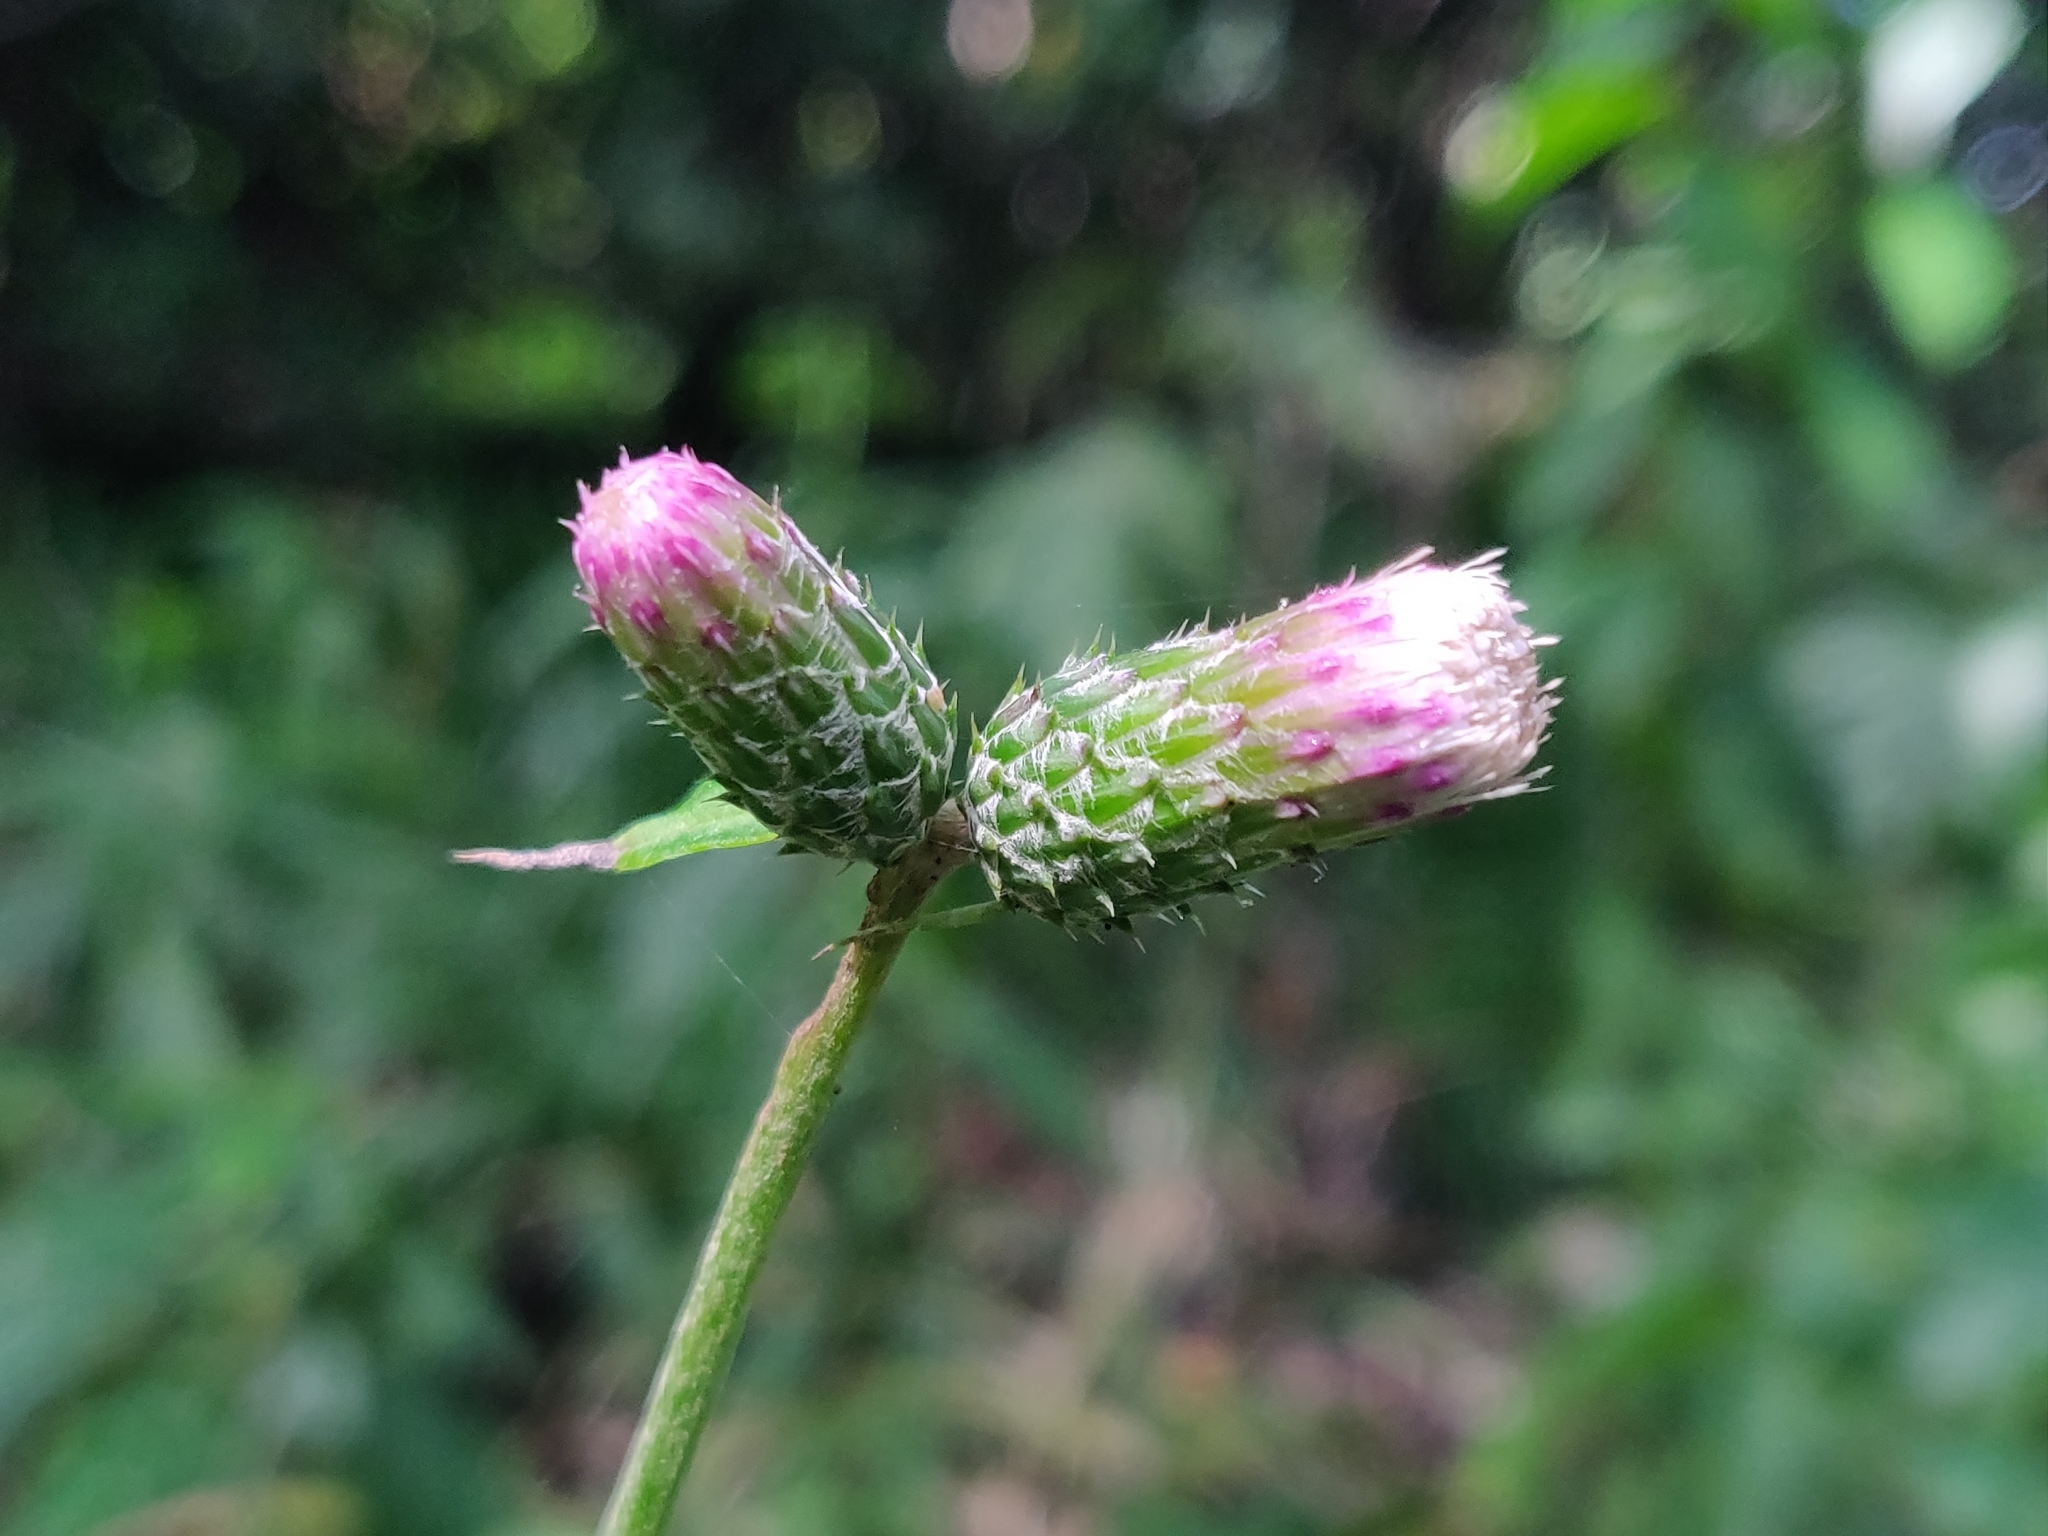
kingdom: Plantae
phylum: Tracheophyta
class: Magnoliopsida
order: Asterales
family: Asteraceae
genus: Cirsium
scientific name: Cirsium microspicatum
